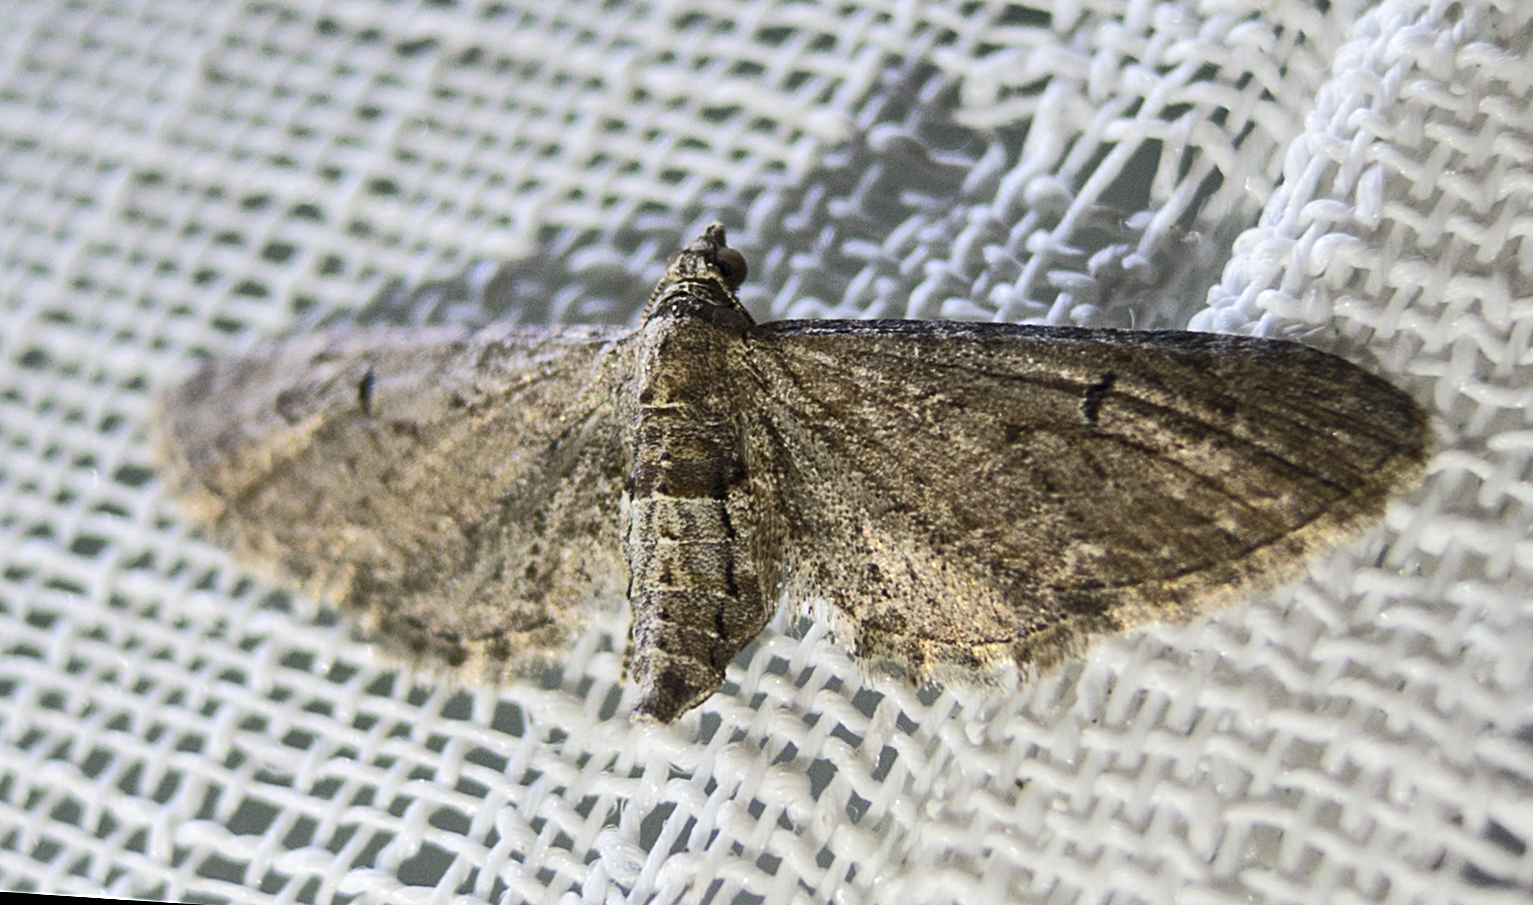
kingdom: Animalia
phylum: Arthropoda
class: Insecta
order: Lepidoptera
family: Geometridae
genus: Eupithecia
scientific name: Eupithecia innotata
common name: Angle-barred pug
